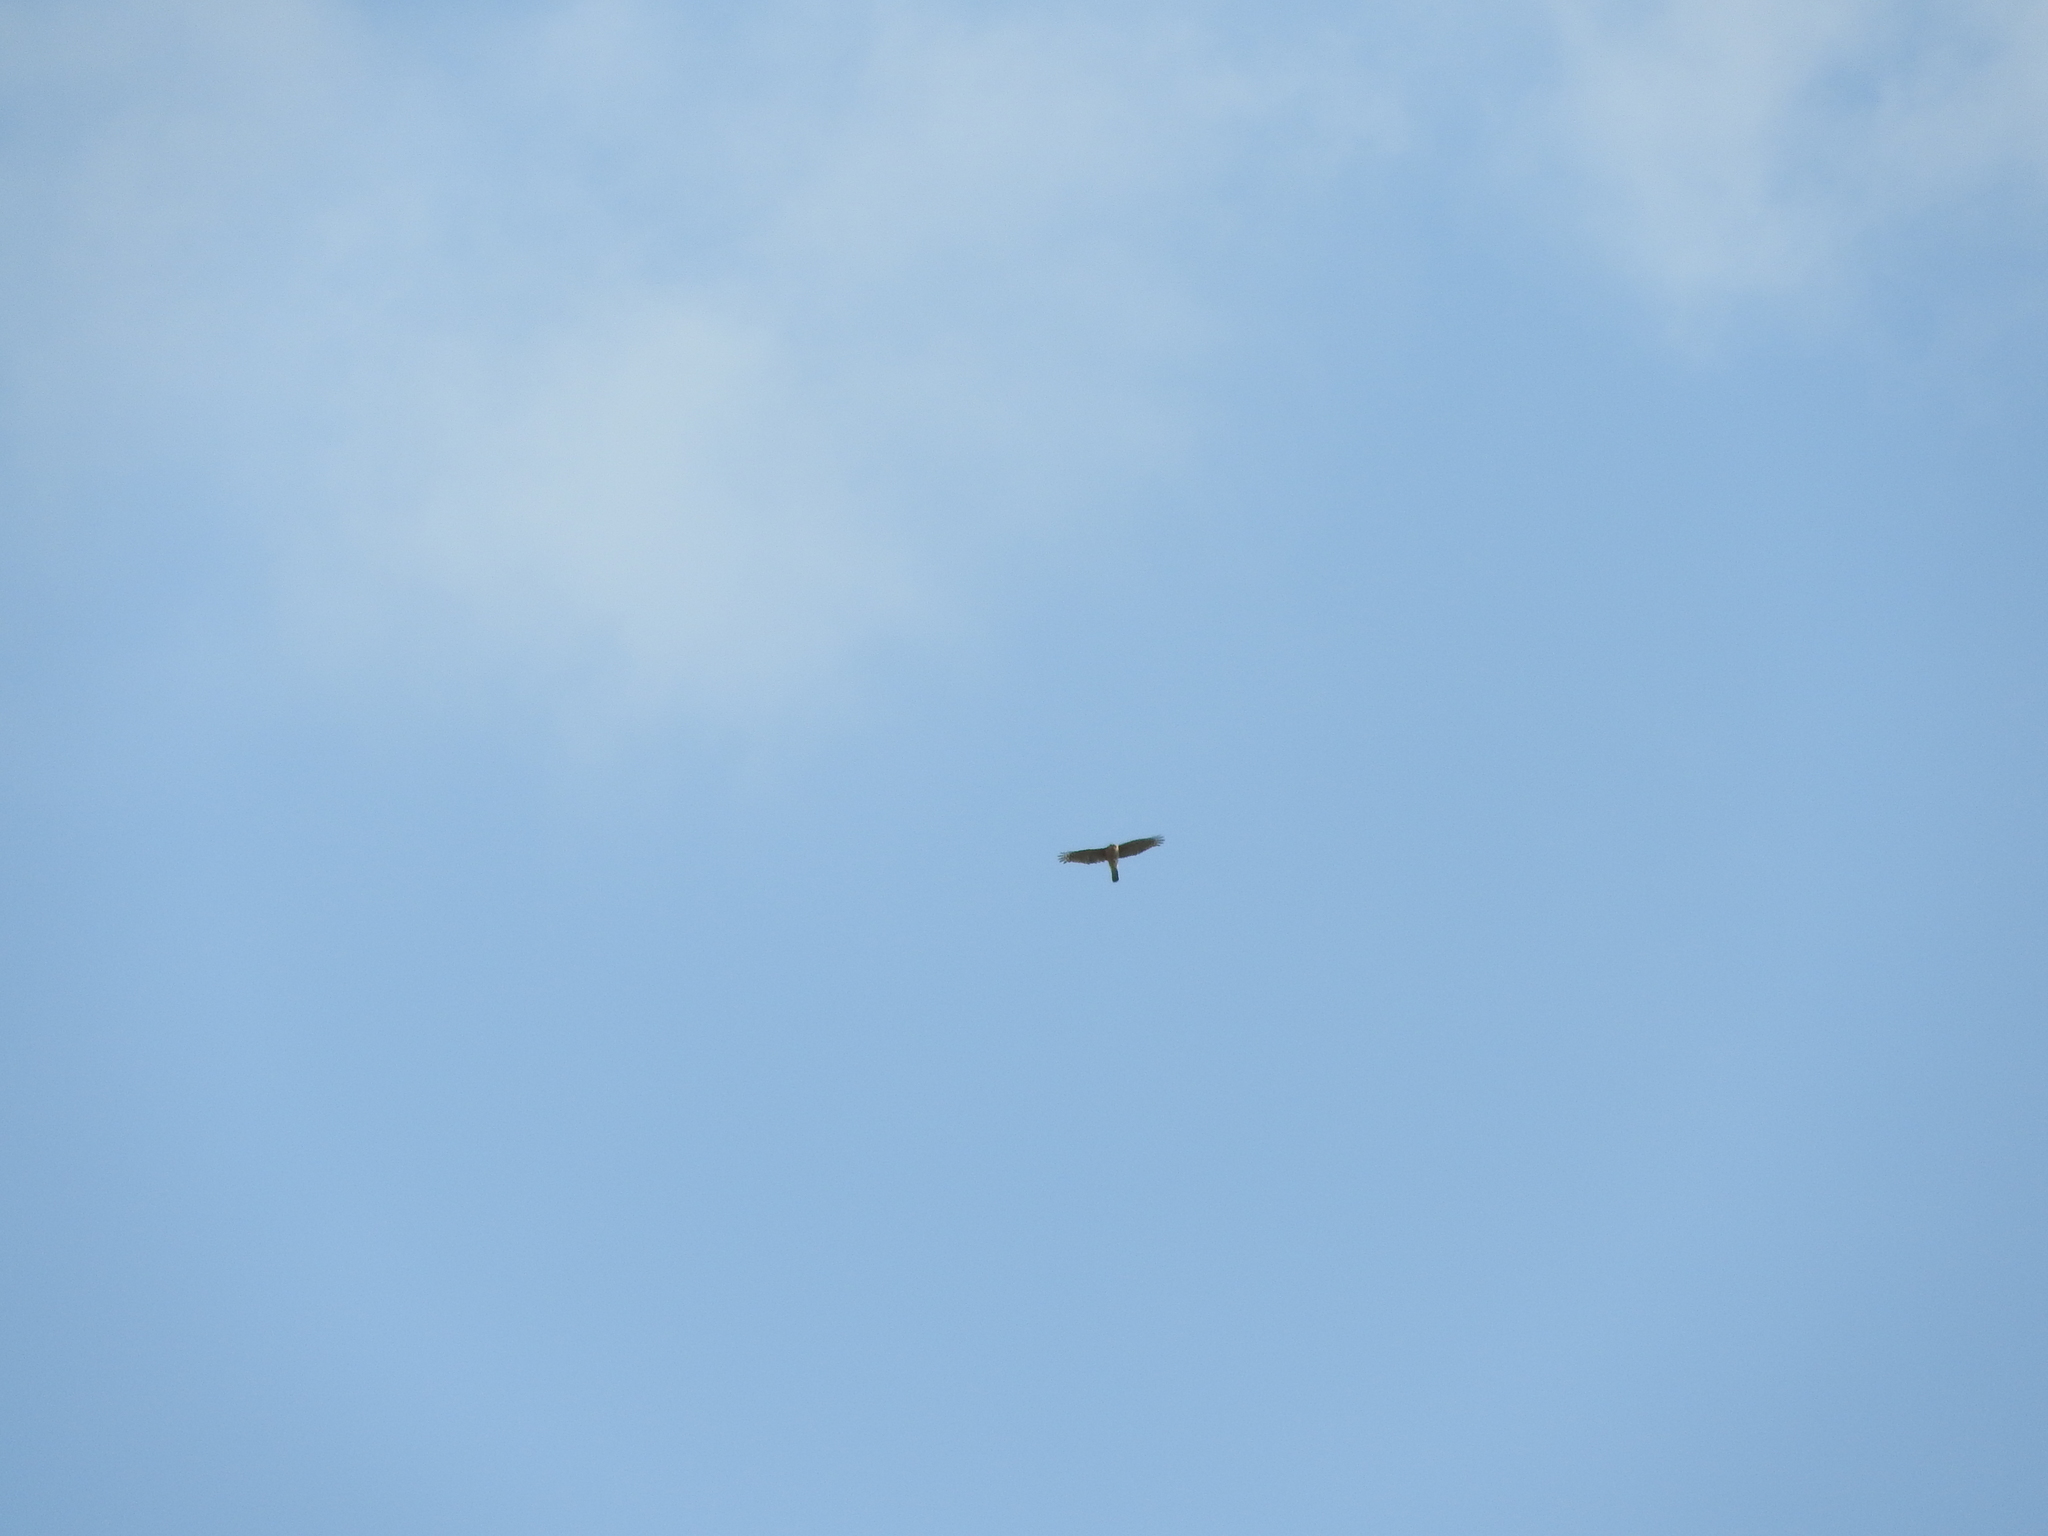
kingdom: Animalia
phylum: Chordata
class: Aves
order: Accipitriformes
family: Accipitridae
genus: Accipiter
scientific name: Accipiter cooperii
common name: Cooper's hawk
